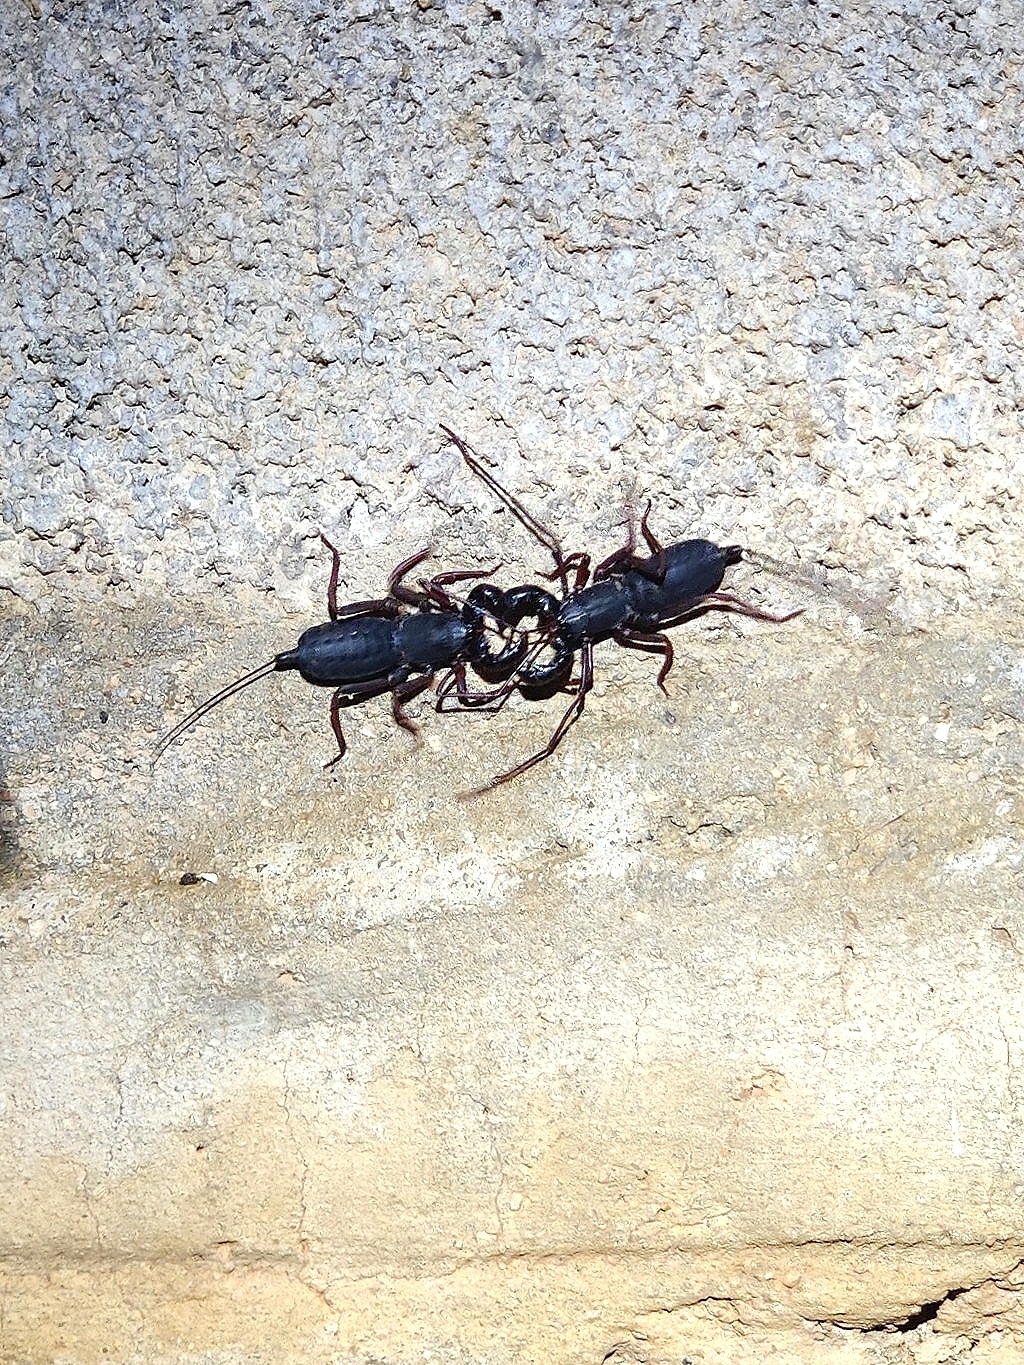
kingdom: Animalia
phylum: Arthropoda
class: Arachnida
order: Uropygi
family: Thelyphonidae
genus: Thelyphonus
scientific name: Thelyphonus sepiaris
